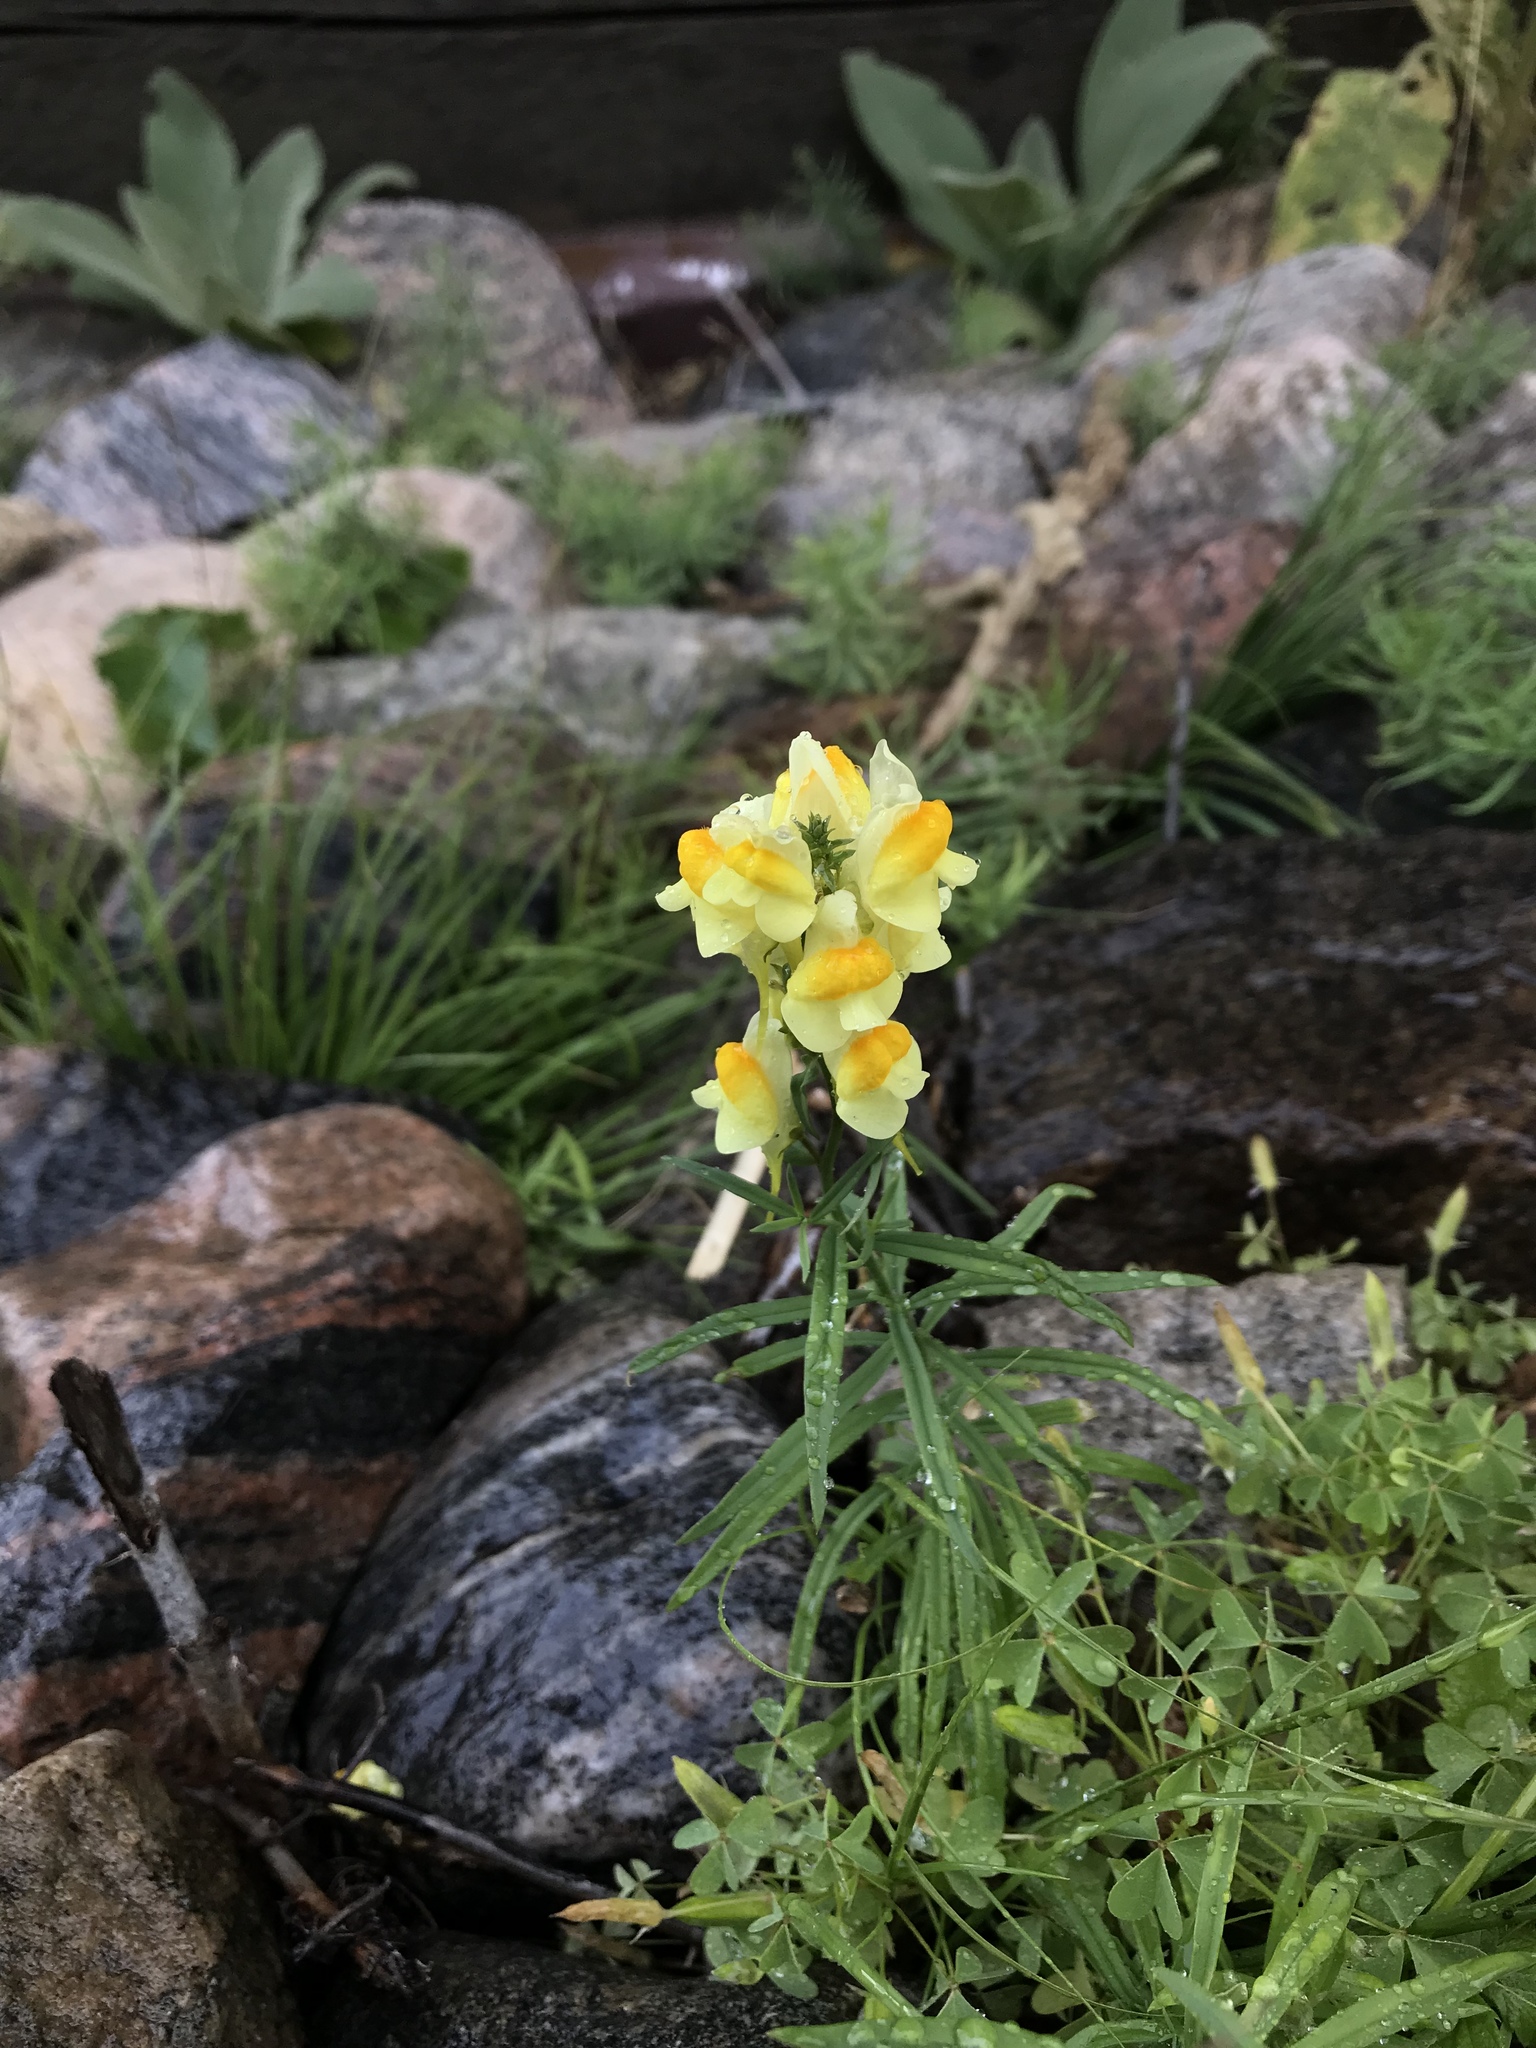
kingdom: Plantae
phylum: Tracheophyta
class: Magnoliopsida
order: Lamiales
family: Plantaginaceae
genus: Linaria
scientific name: Linaria vulgaris
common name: Butter and eggs
